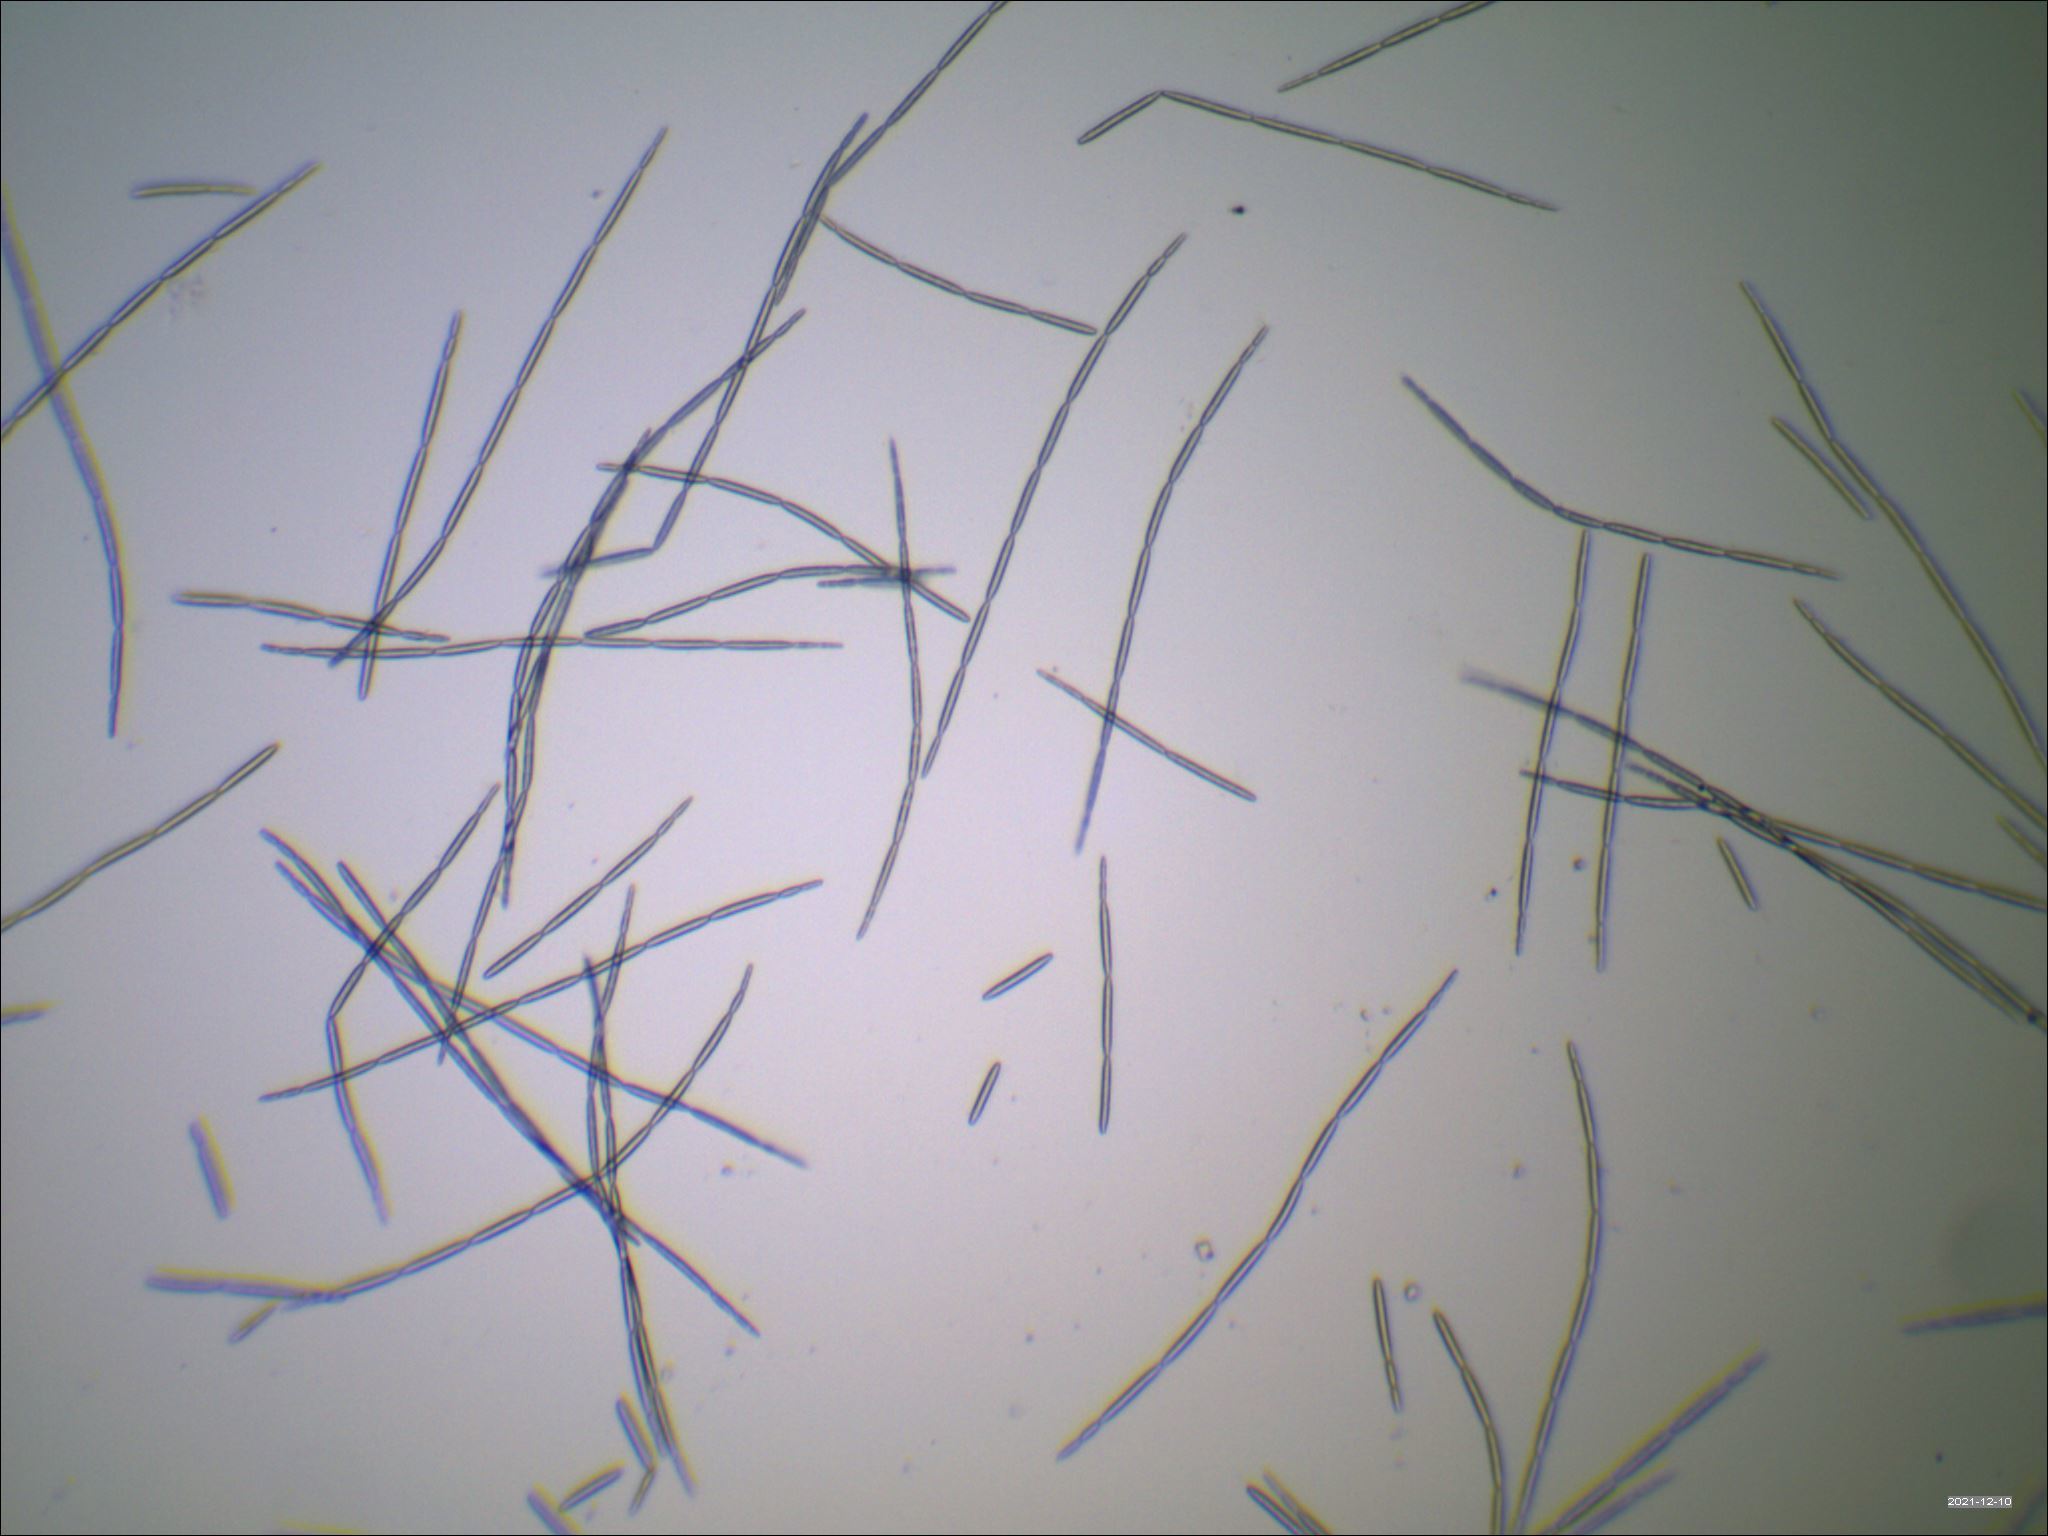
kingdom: Fungi
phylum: Ascomycota
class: Sordariomycetes
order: Hypocreales
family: Ophiocordycipitaceae
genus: Tolypocladium
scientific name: Tolypocladium longisegmentatum
